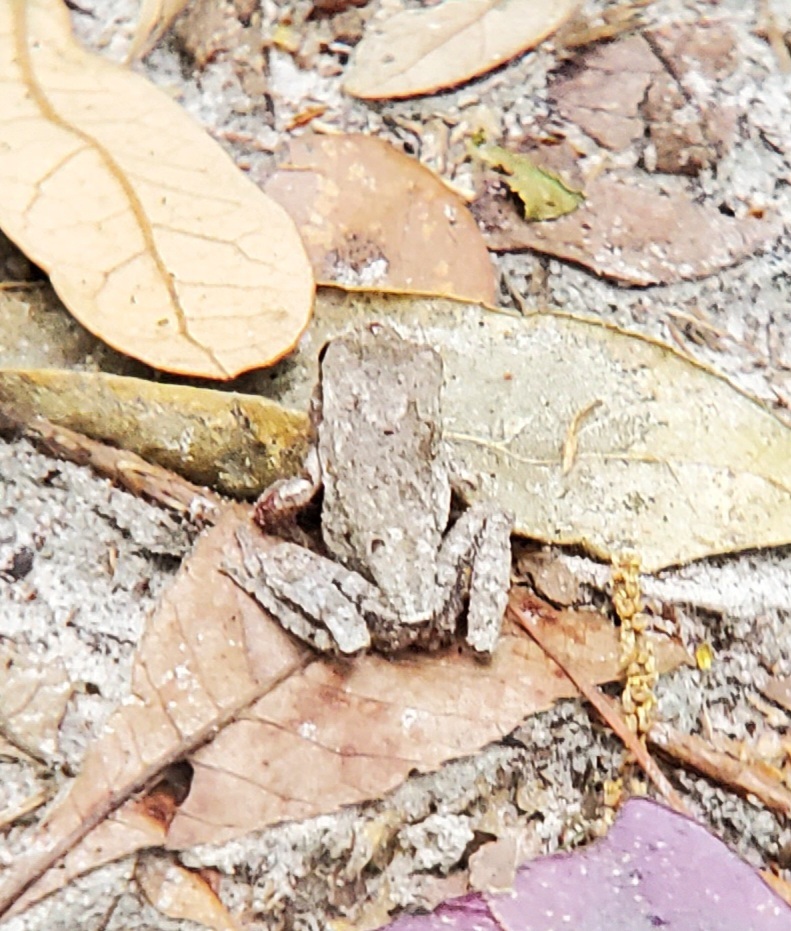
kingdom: Animalia
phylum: Chordata
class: Amphibia
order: Anura
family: Hylidae
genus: Hyla
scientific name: Hyla femoralis
